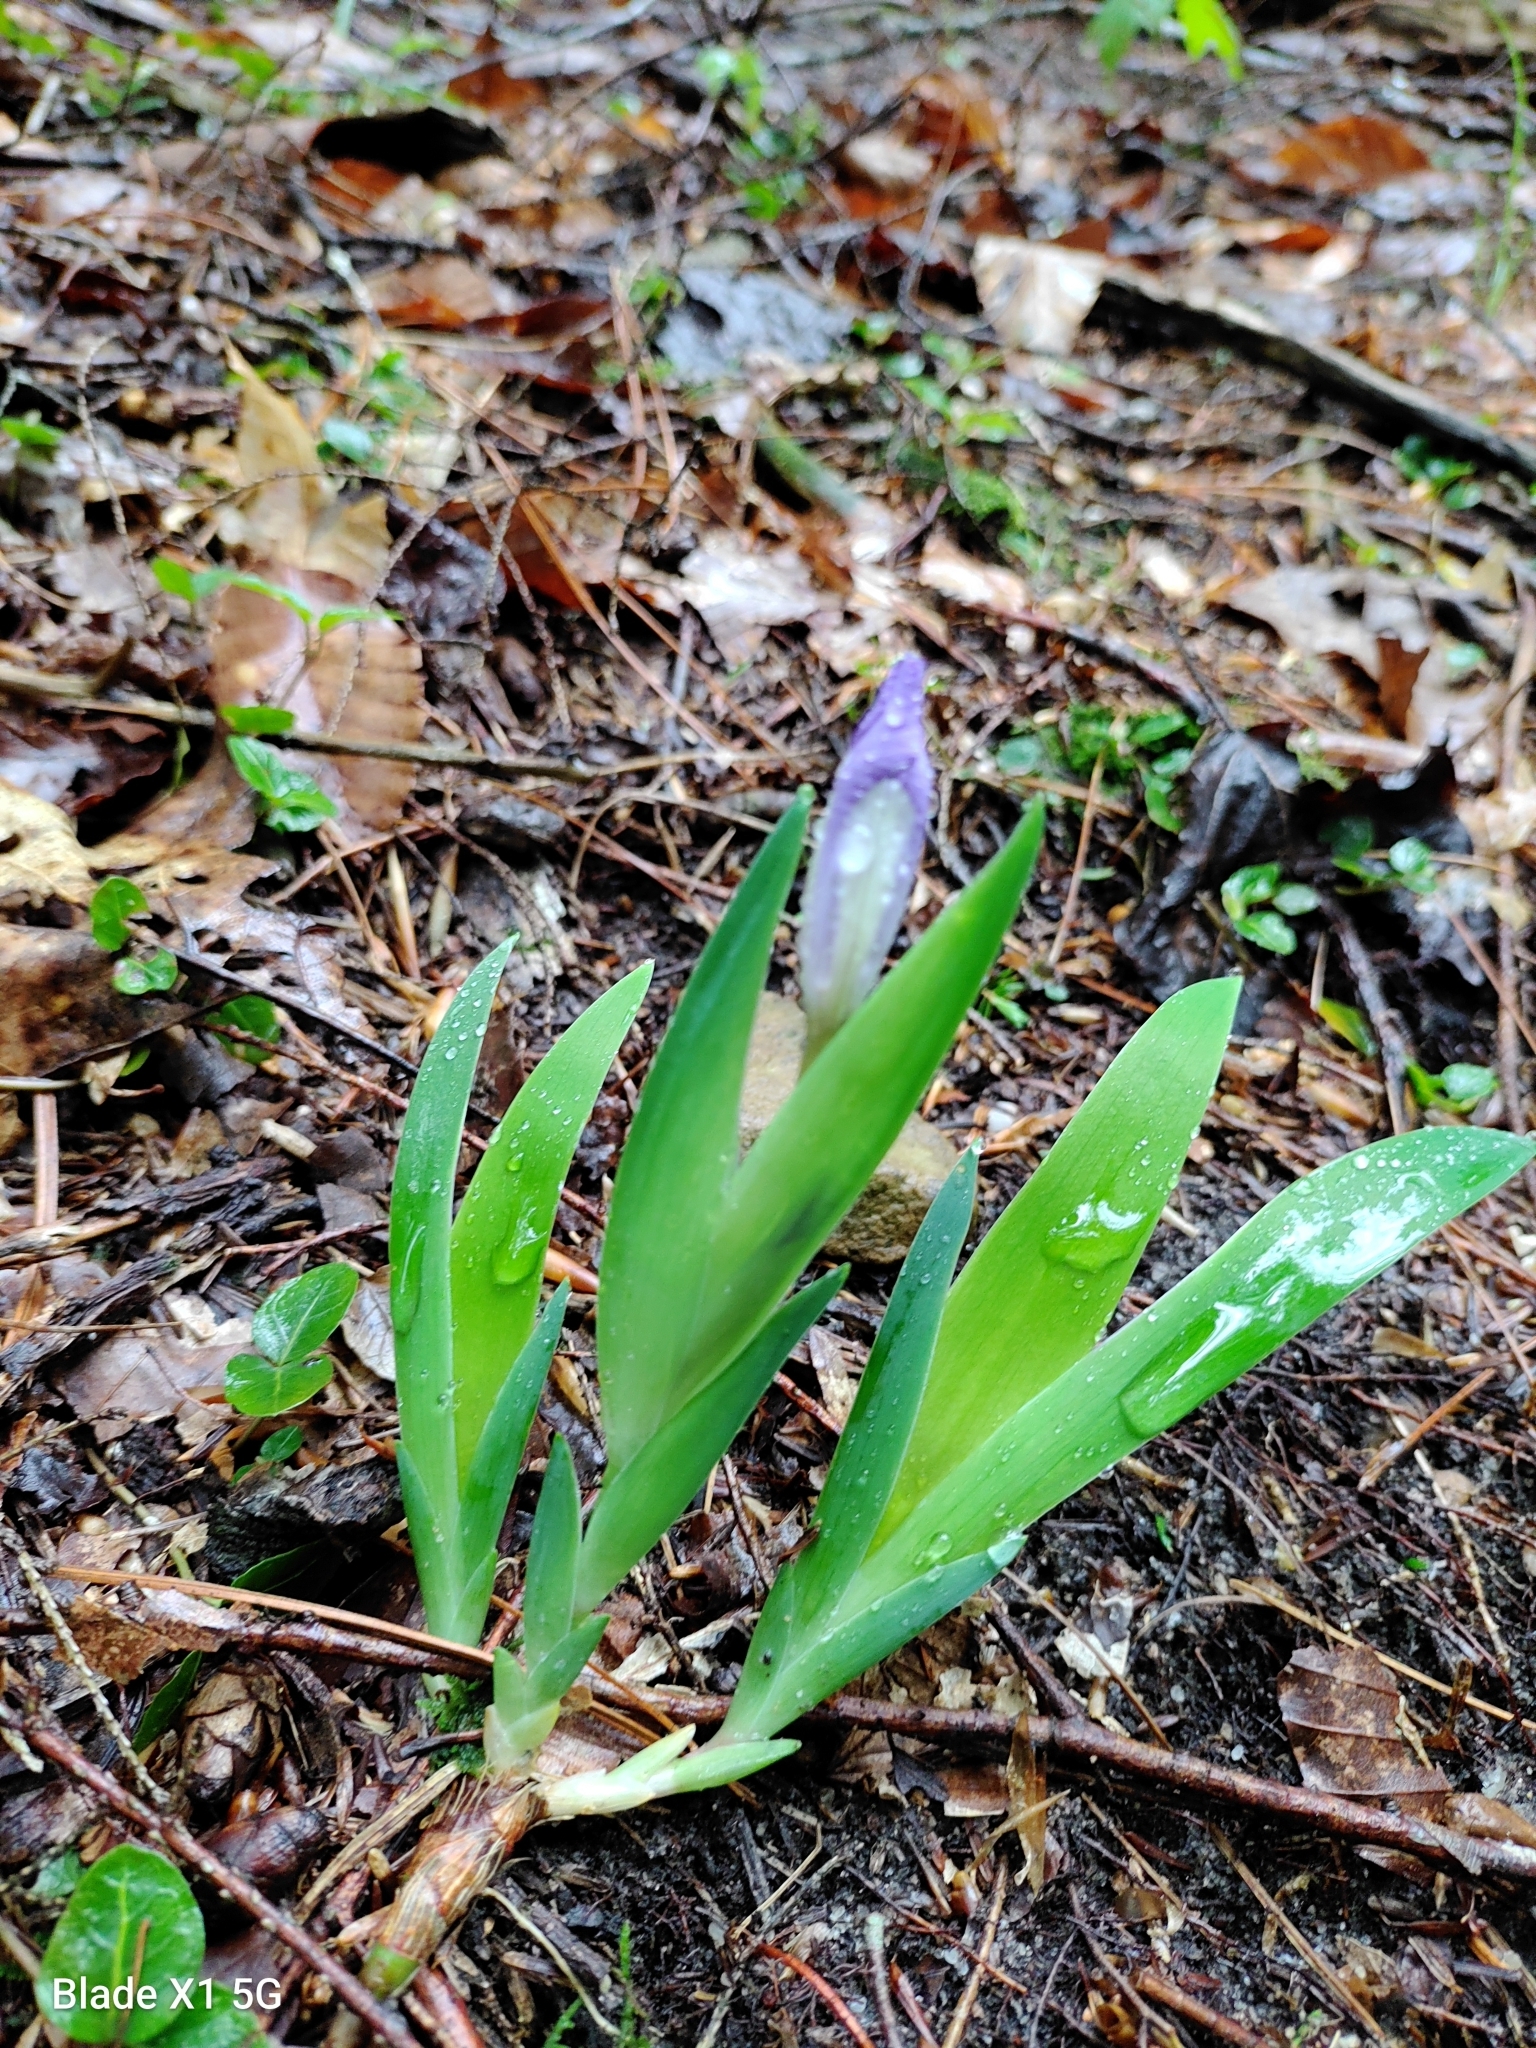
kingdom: Plantae
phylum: Tracheophyta
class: Liliopsida
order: Asparagales
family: Iridaceae
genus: Iris
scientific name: Iris cristata
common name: Crested iris
